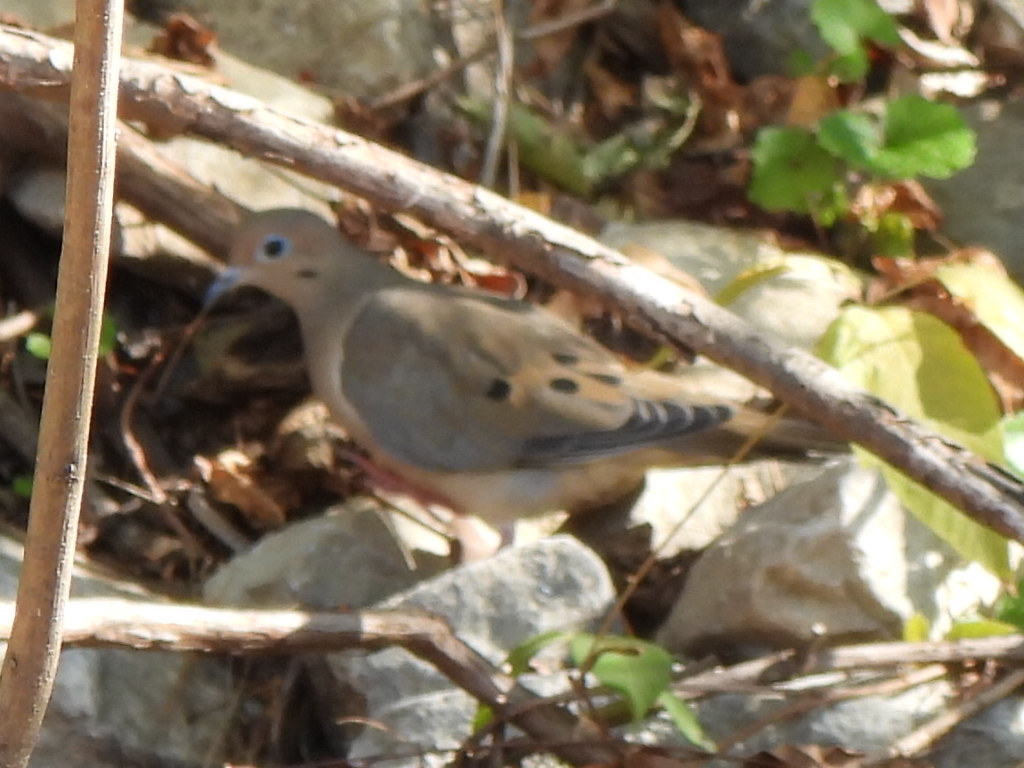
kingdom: Animalia
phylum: Chordata
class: Aves
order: Columbiformes
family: Columbidae
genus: Zenaida
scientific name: Zenaida macroura
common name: Mourning dove
